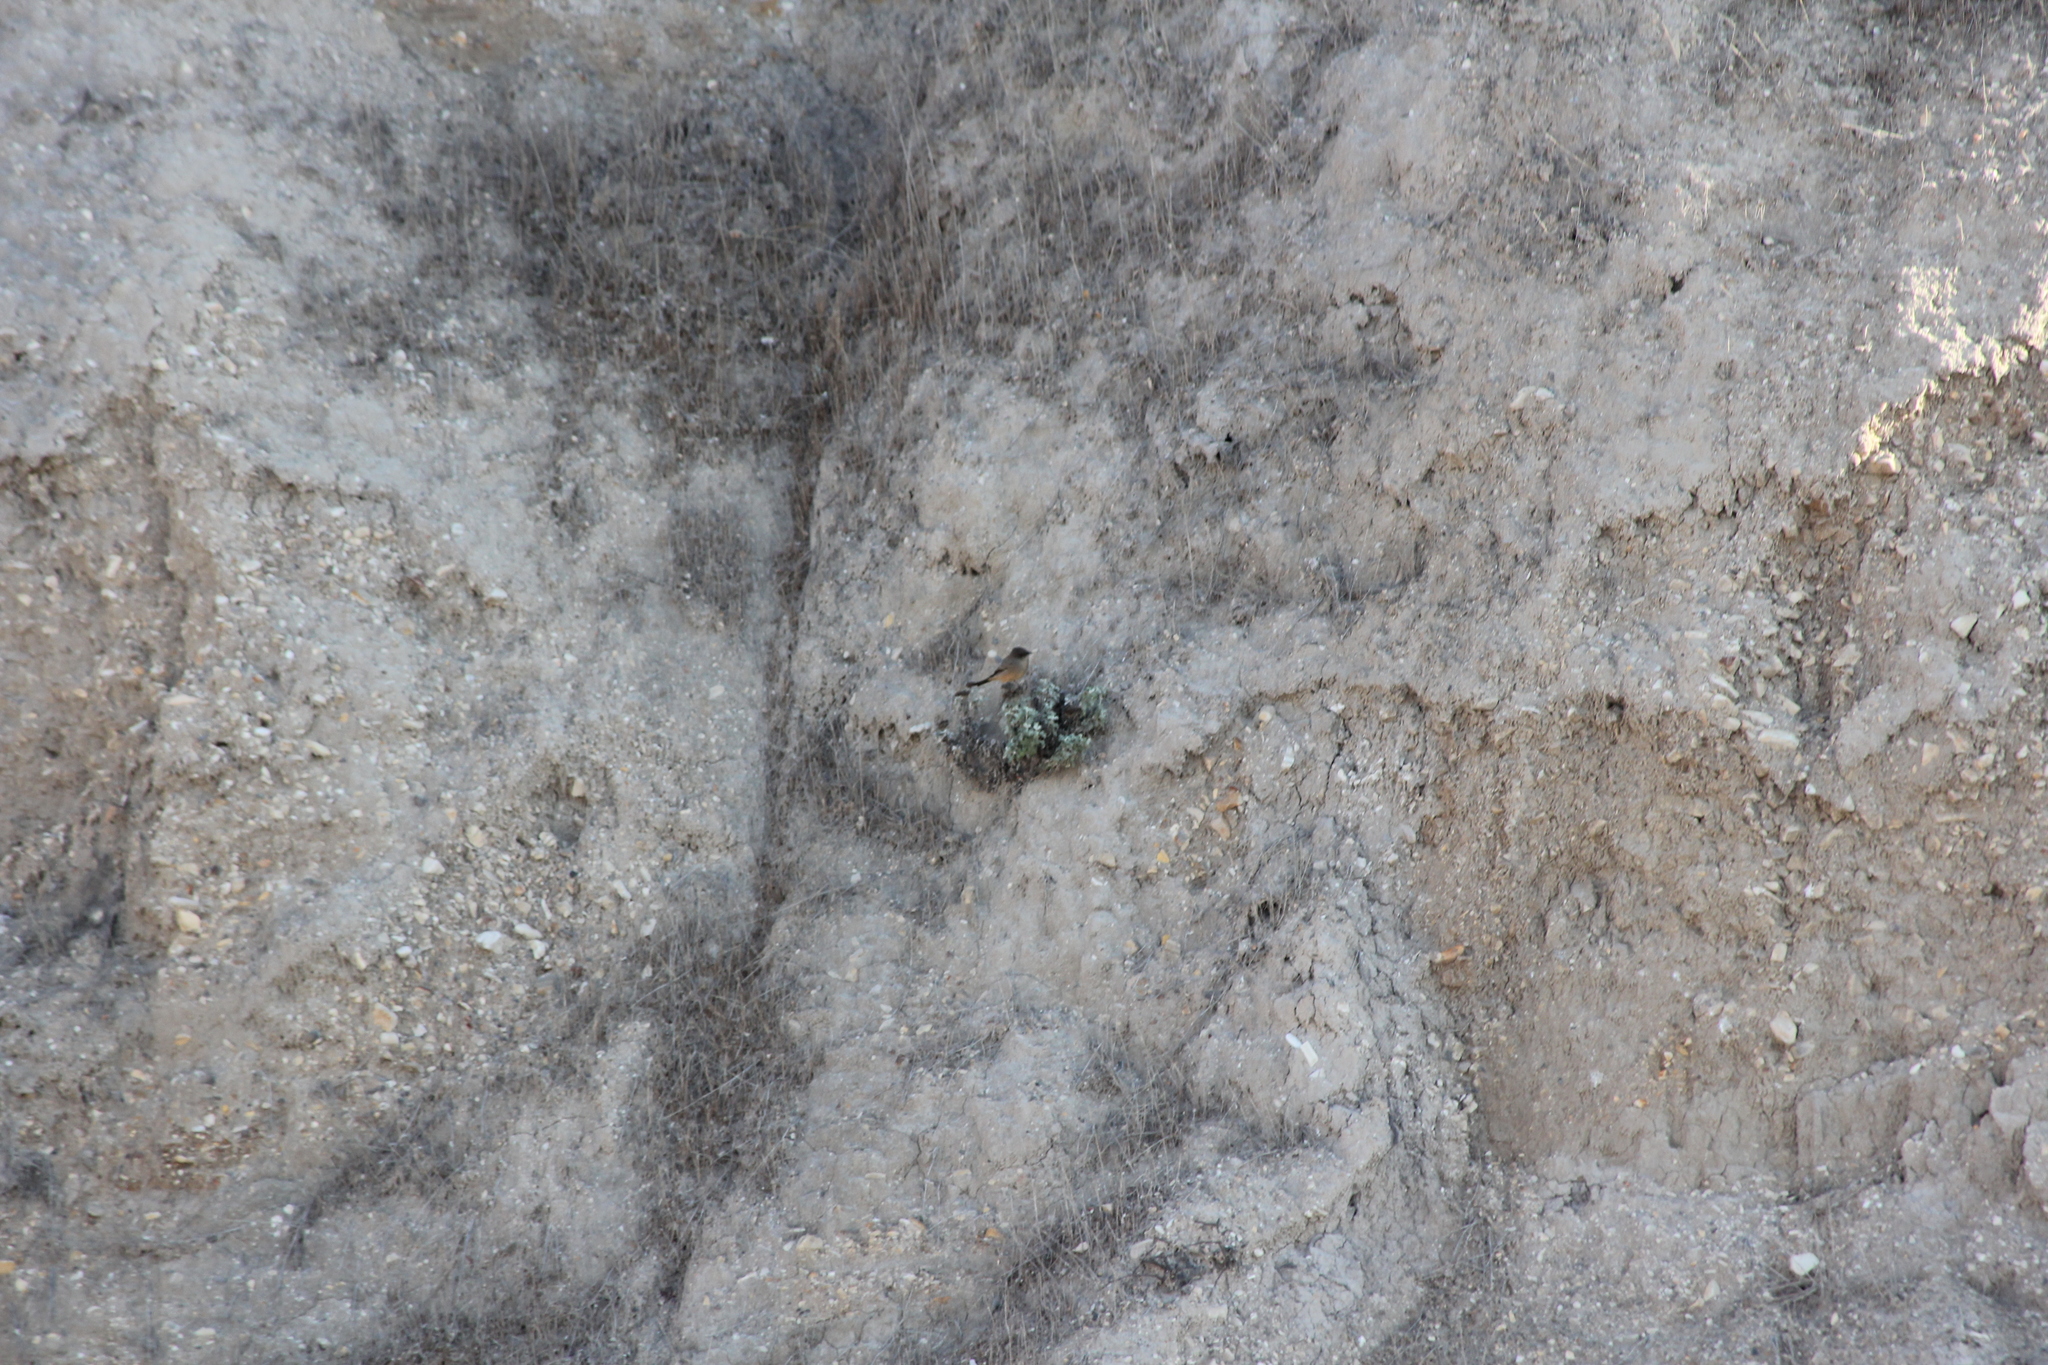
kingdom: Animalia
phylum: Chordata
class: Aves
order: Passeriformes
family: Tyrannidae
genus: Sayornis
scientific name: Sayornis saya
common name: Say's phoebe
